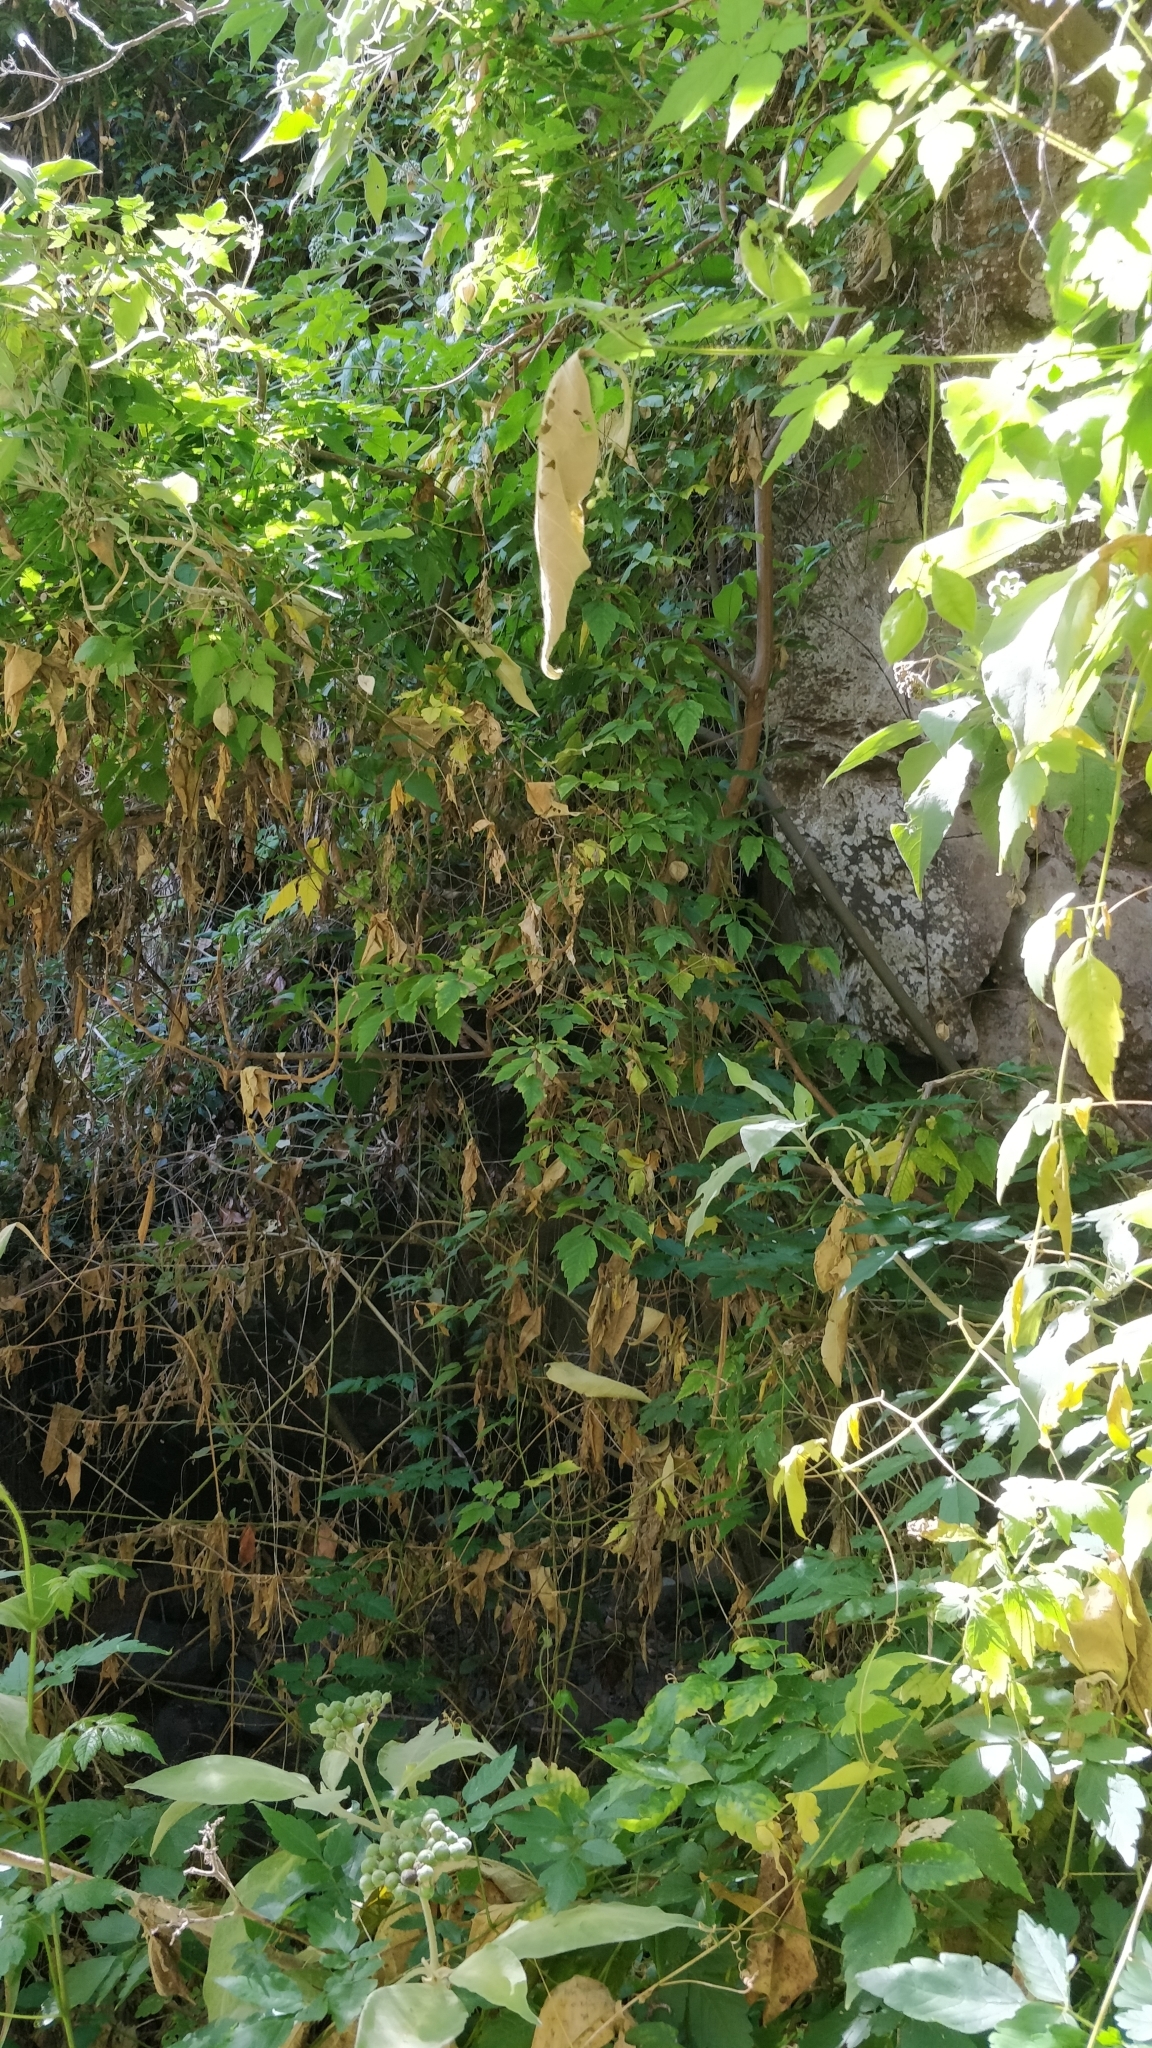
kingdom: Plantae
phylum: Tracheophyta
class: Magnoliopsida
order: Sapindales
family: Sapindaceae
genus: Cardiospermum
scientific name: Cardiospermum grandiflorum
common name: Balloon vine
